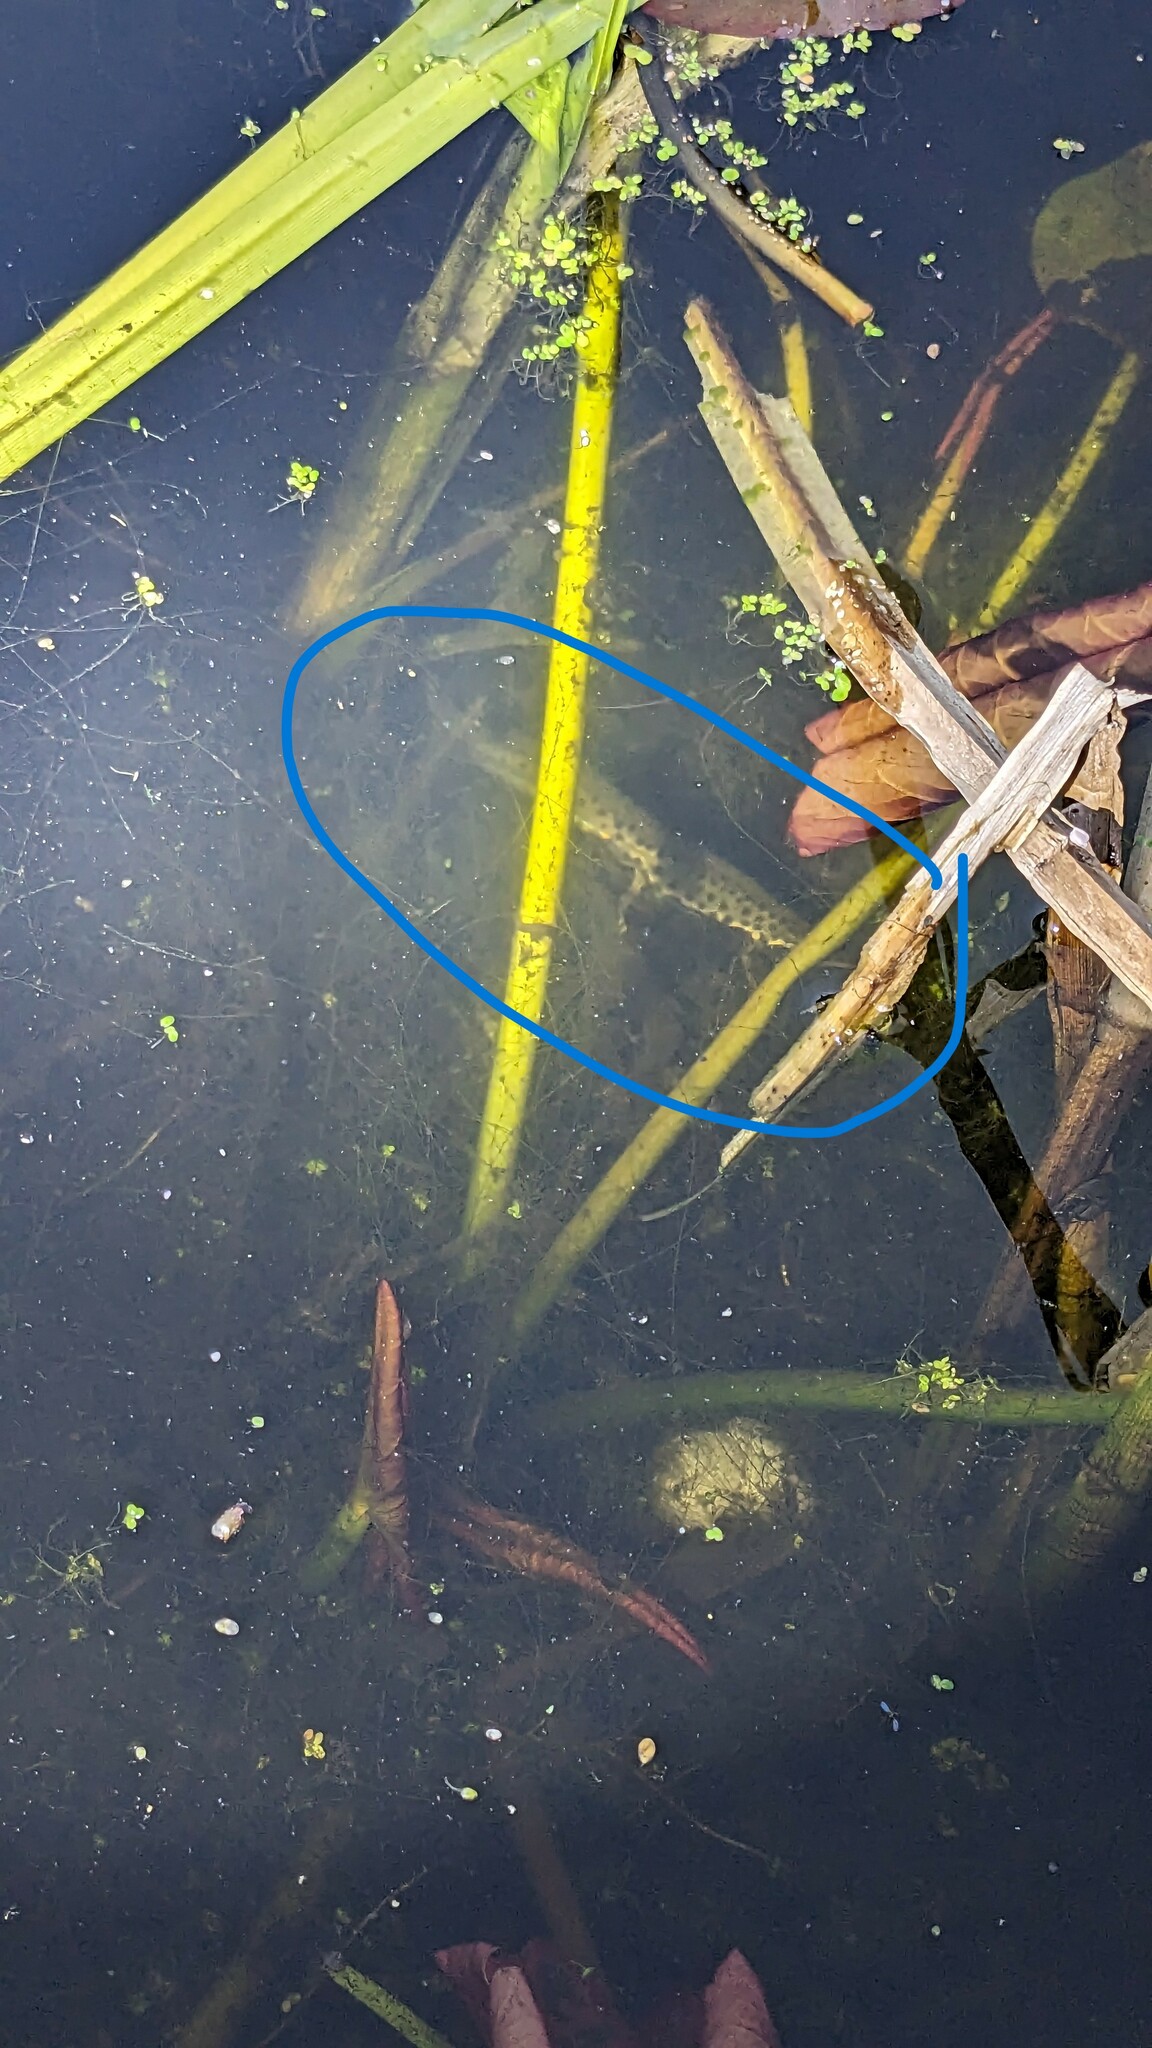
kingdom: Animalia
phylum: Chordata
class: Amphibia
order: Caudata
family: Salamandridae
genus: Lissotriton
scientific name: Lissotriton vulgaris
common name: Smooth newt
